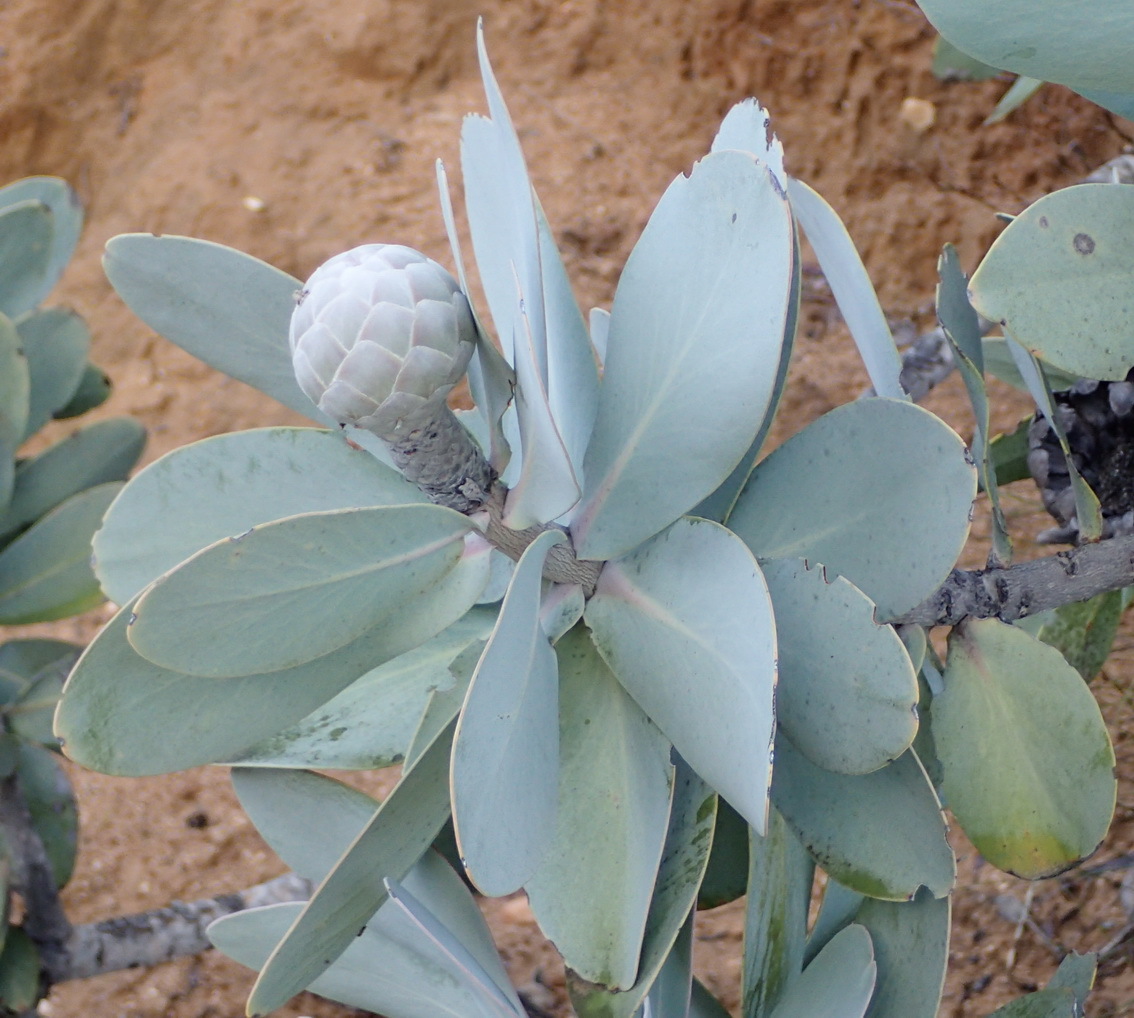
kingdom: Plantae
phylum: Tracheophyta
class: Magnoliopsida
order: Proteales
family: Proteaceae
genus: Protea
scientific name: Protea nitida
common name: Tree protea
